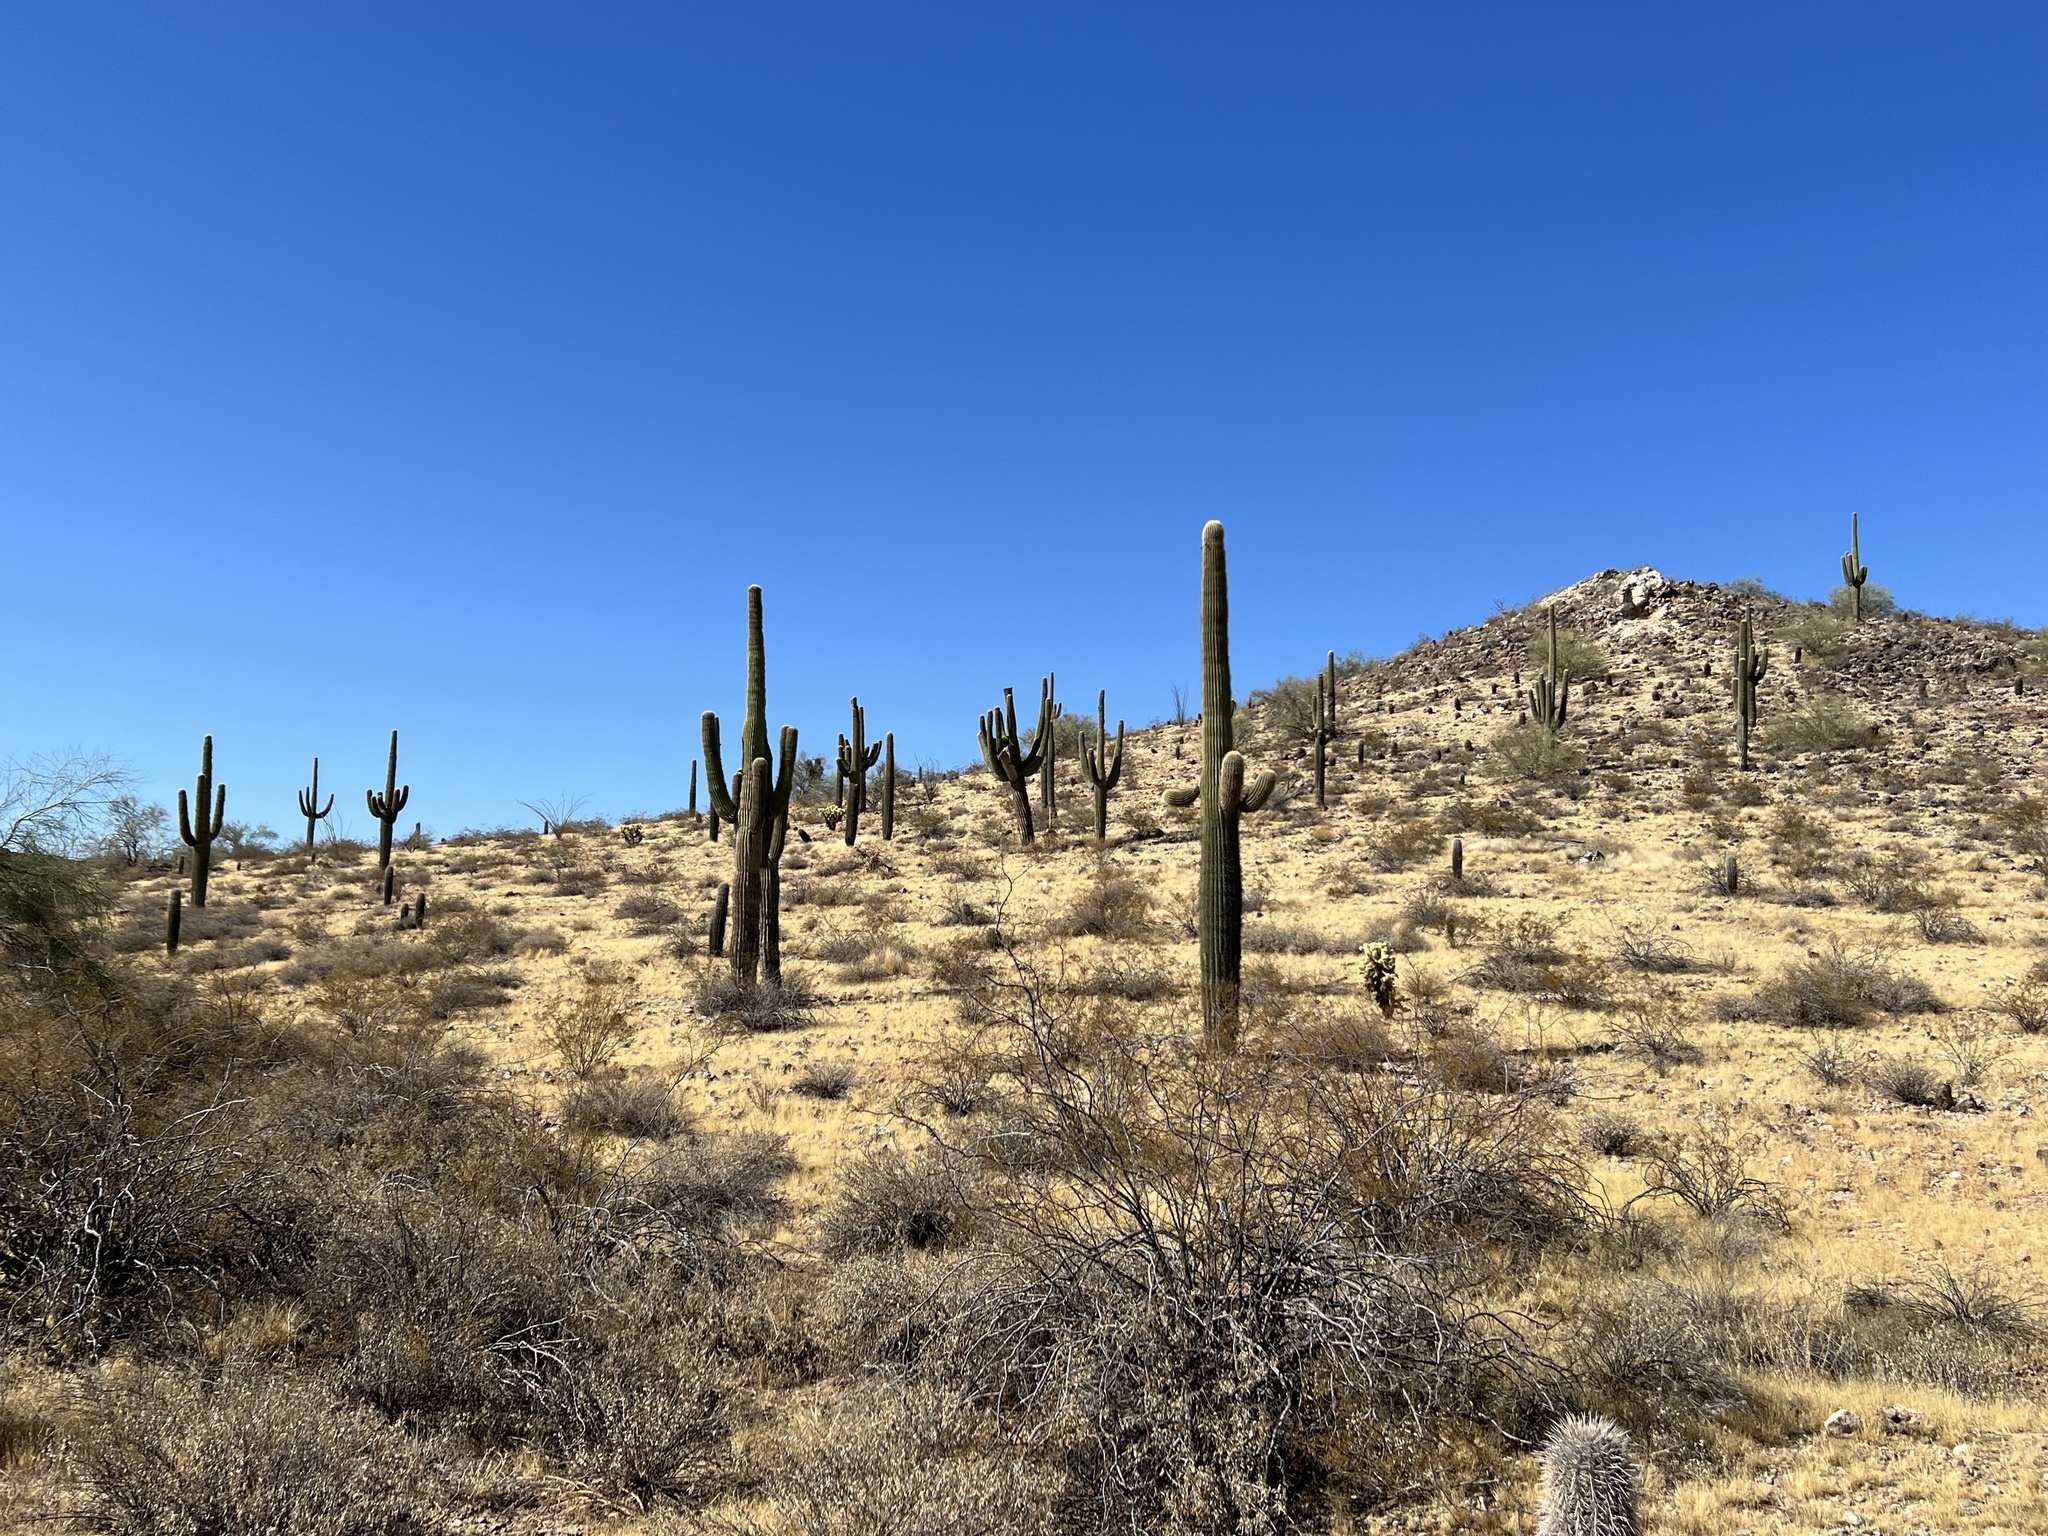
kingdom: Plantae
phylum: Tracheophyta
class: Magnoliopsida
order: Caryophyllales
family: Cactaceae
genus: Carnegiea
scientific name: Carnegiea gigantea
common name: Saguaro
